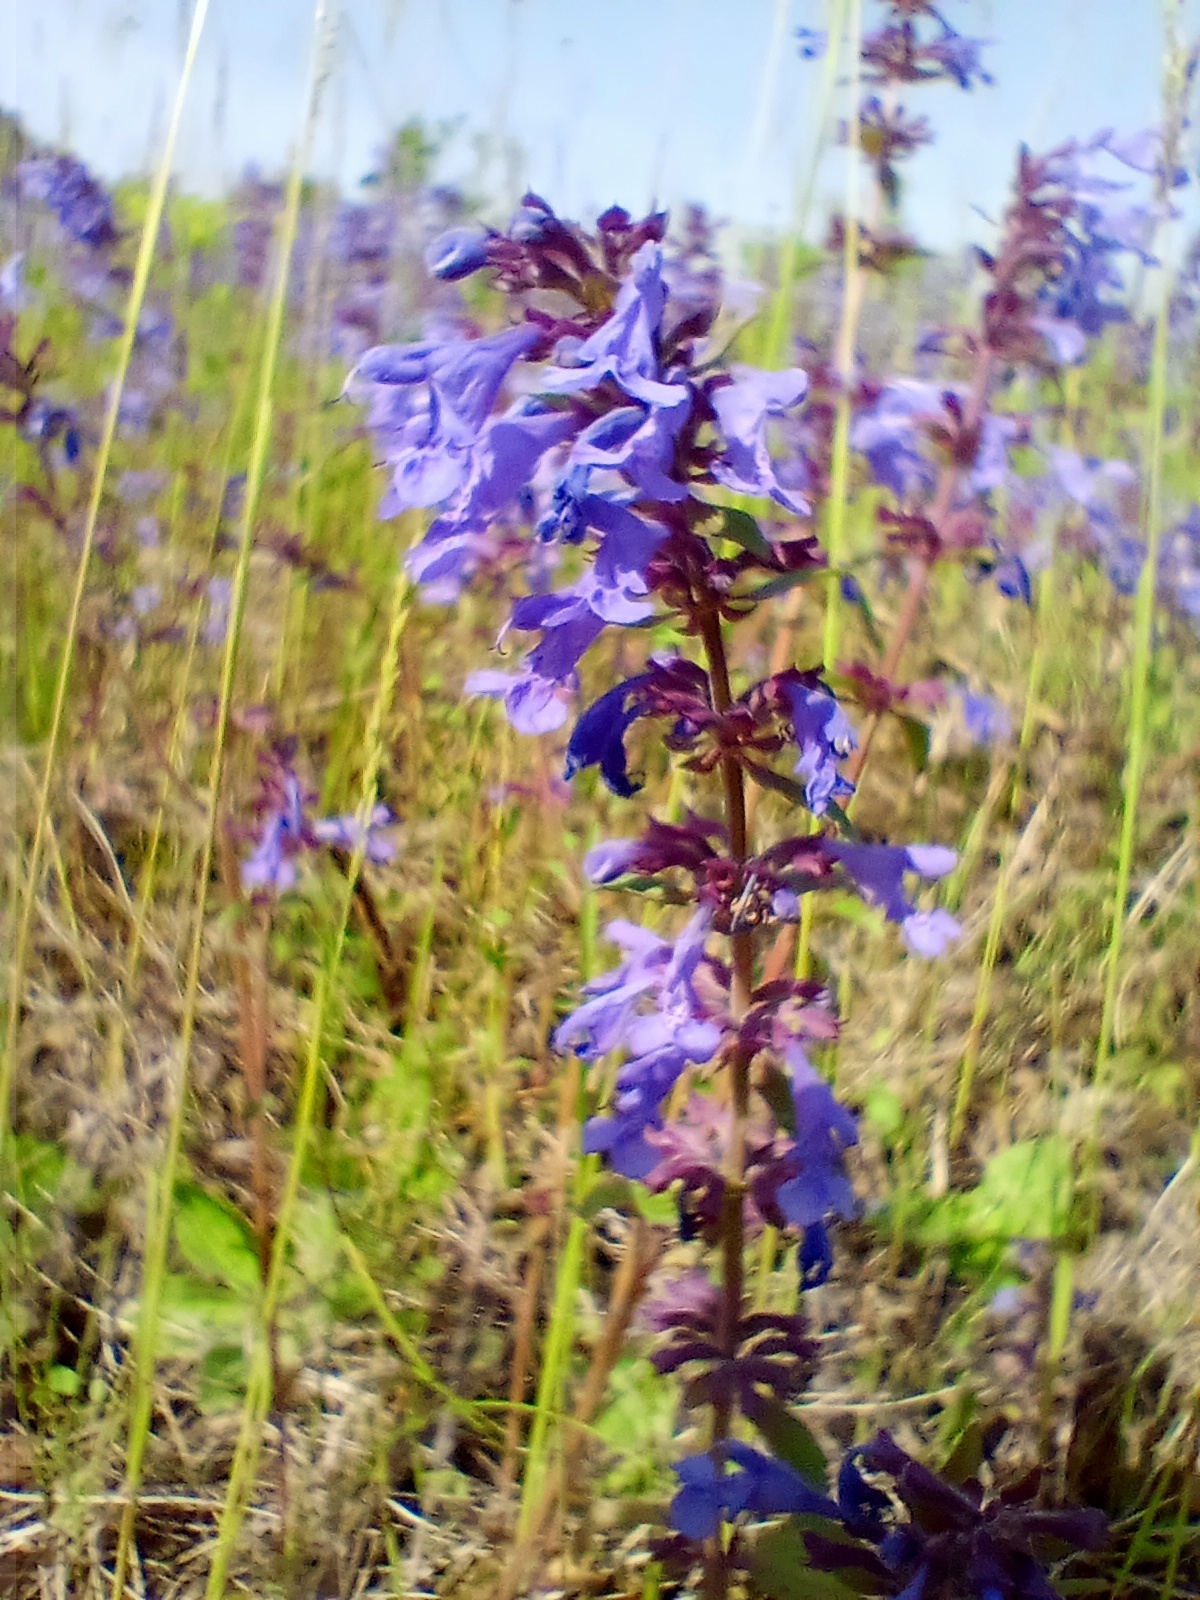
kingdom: Plantae
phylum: Tracheophyta
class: Magnoliopsida
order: Lamiales
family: Lamiaceae
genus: Dracocephalum
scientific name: Dracocephalum nutans
